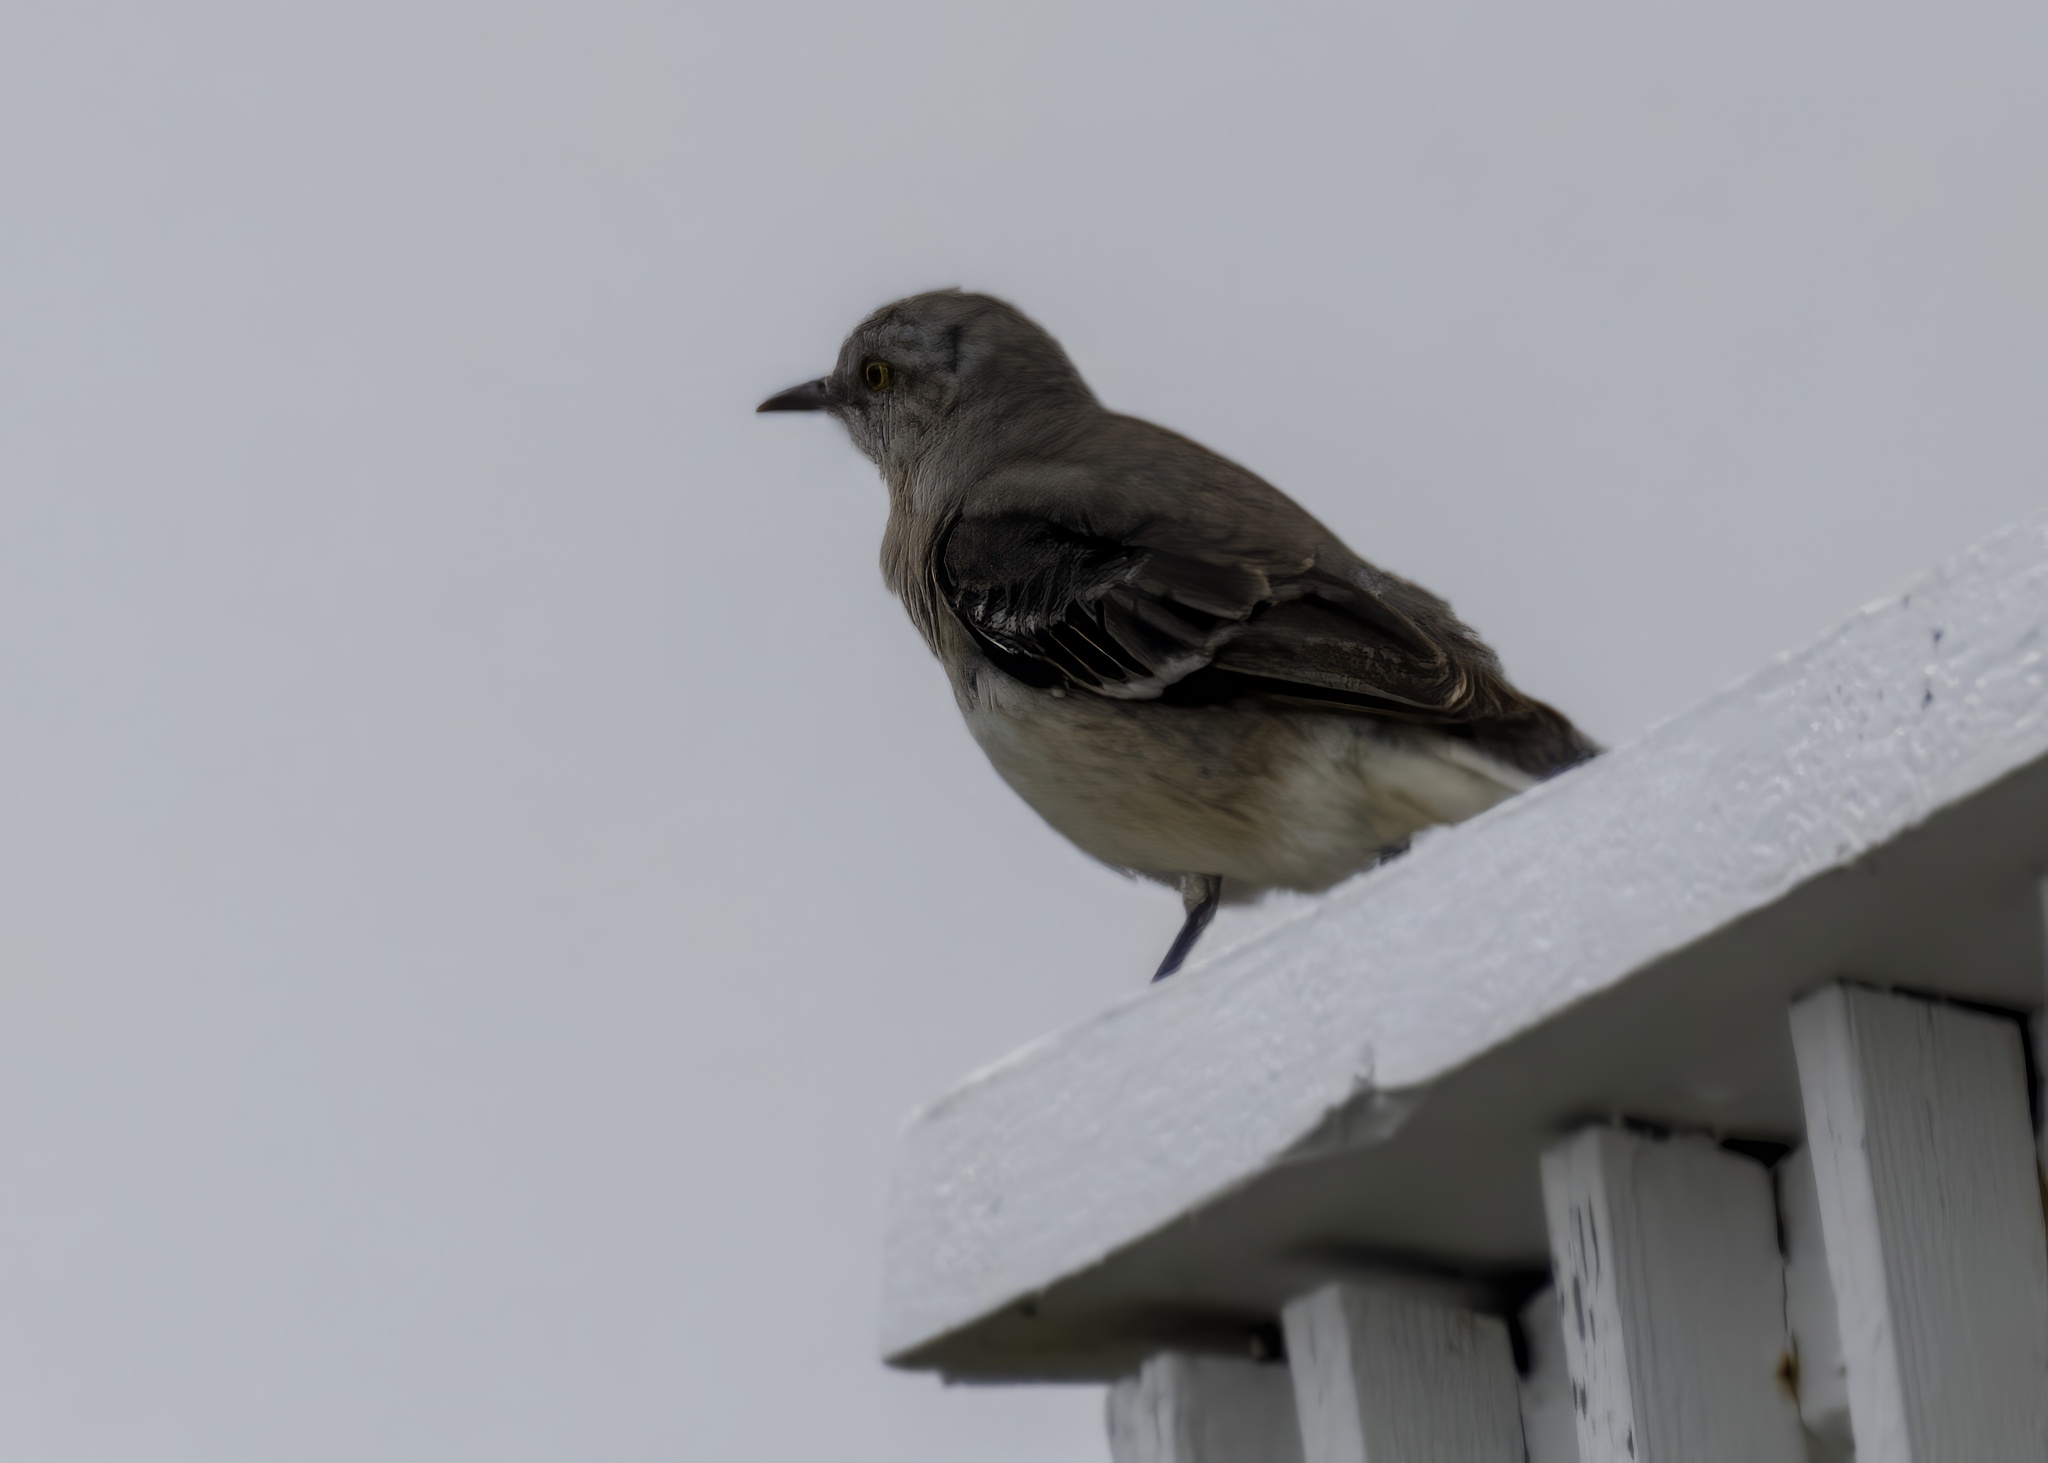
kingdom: Animalia
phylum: Chordata
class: Aves
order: Passeriformes
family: Mimidae
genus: Mimus
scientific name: Mimus polyglottos
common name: Northern mockingbird
